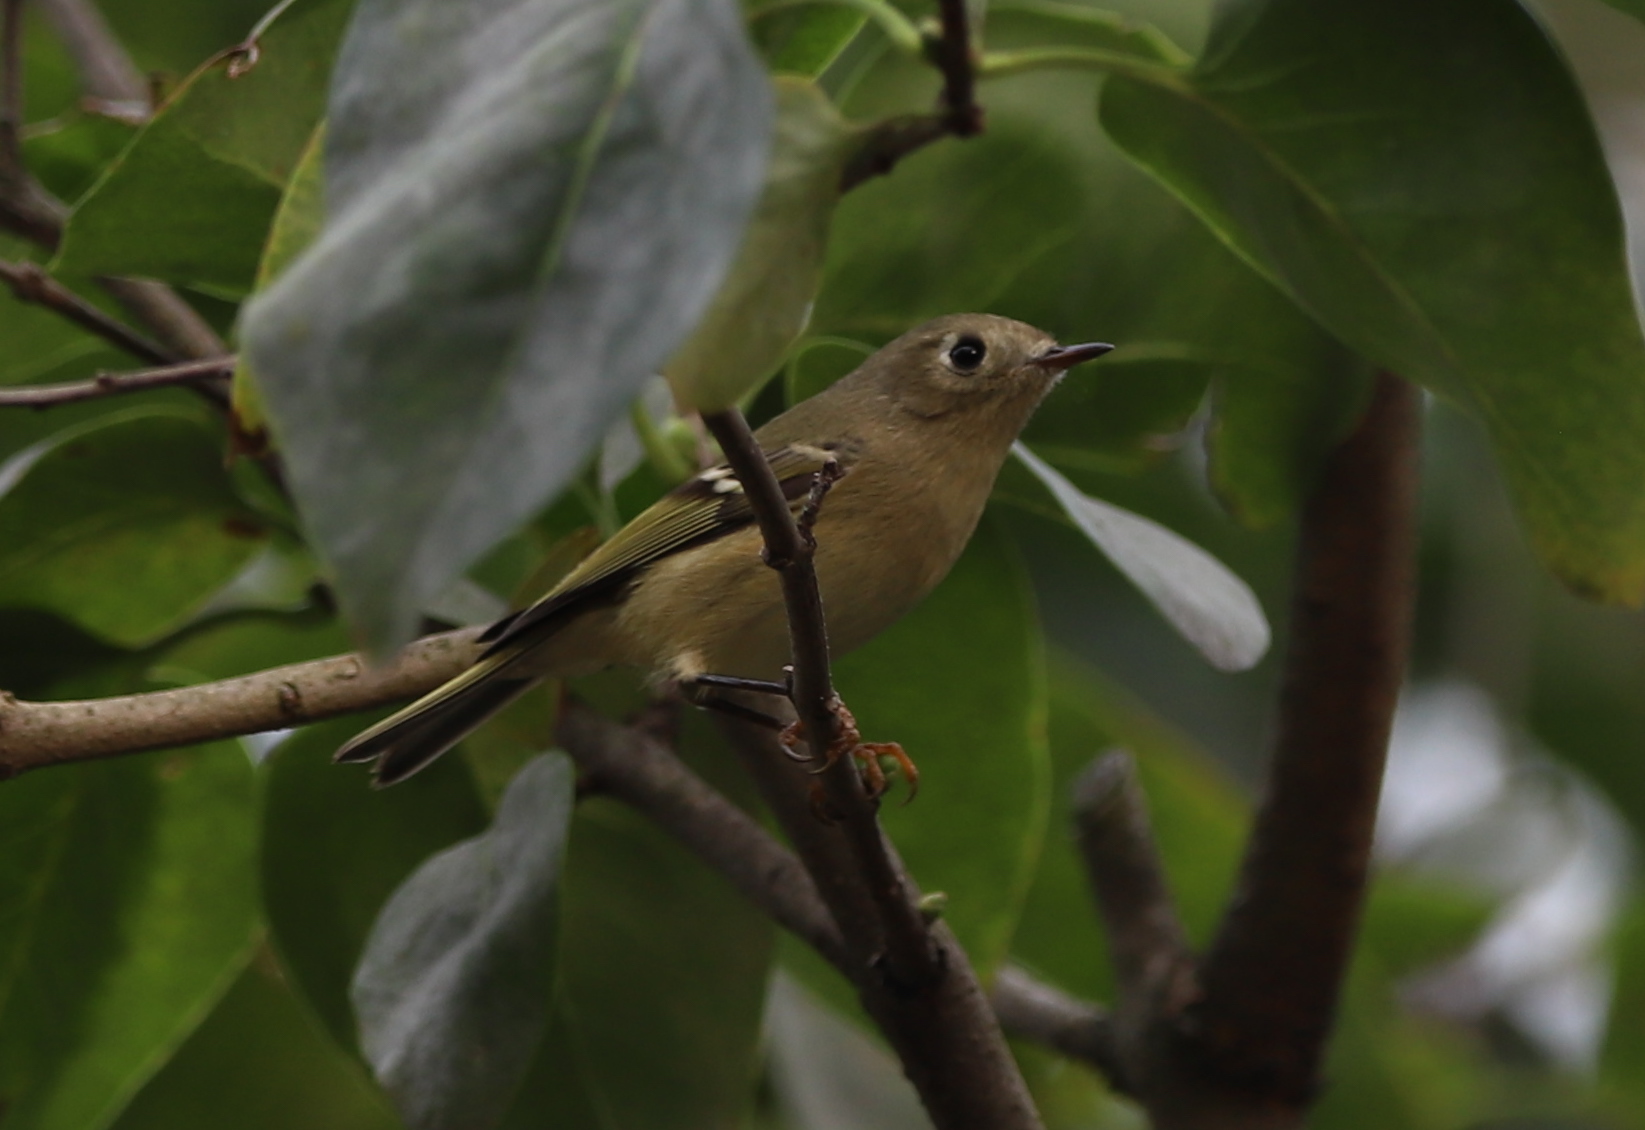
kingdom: Animalia
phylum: Chordata
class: Aves
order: Passeriformes
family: Regulidae
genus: Regulus
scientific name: Regulus calendula
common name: Ruby-crowned kinglet
